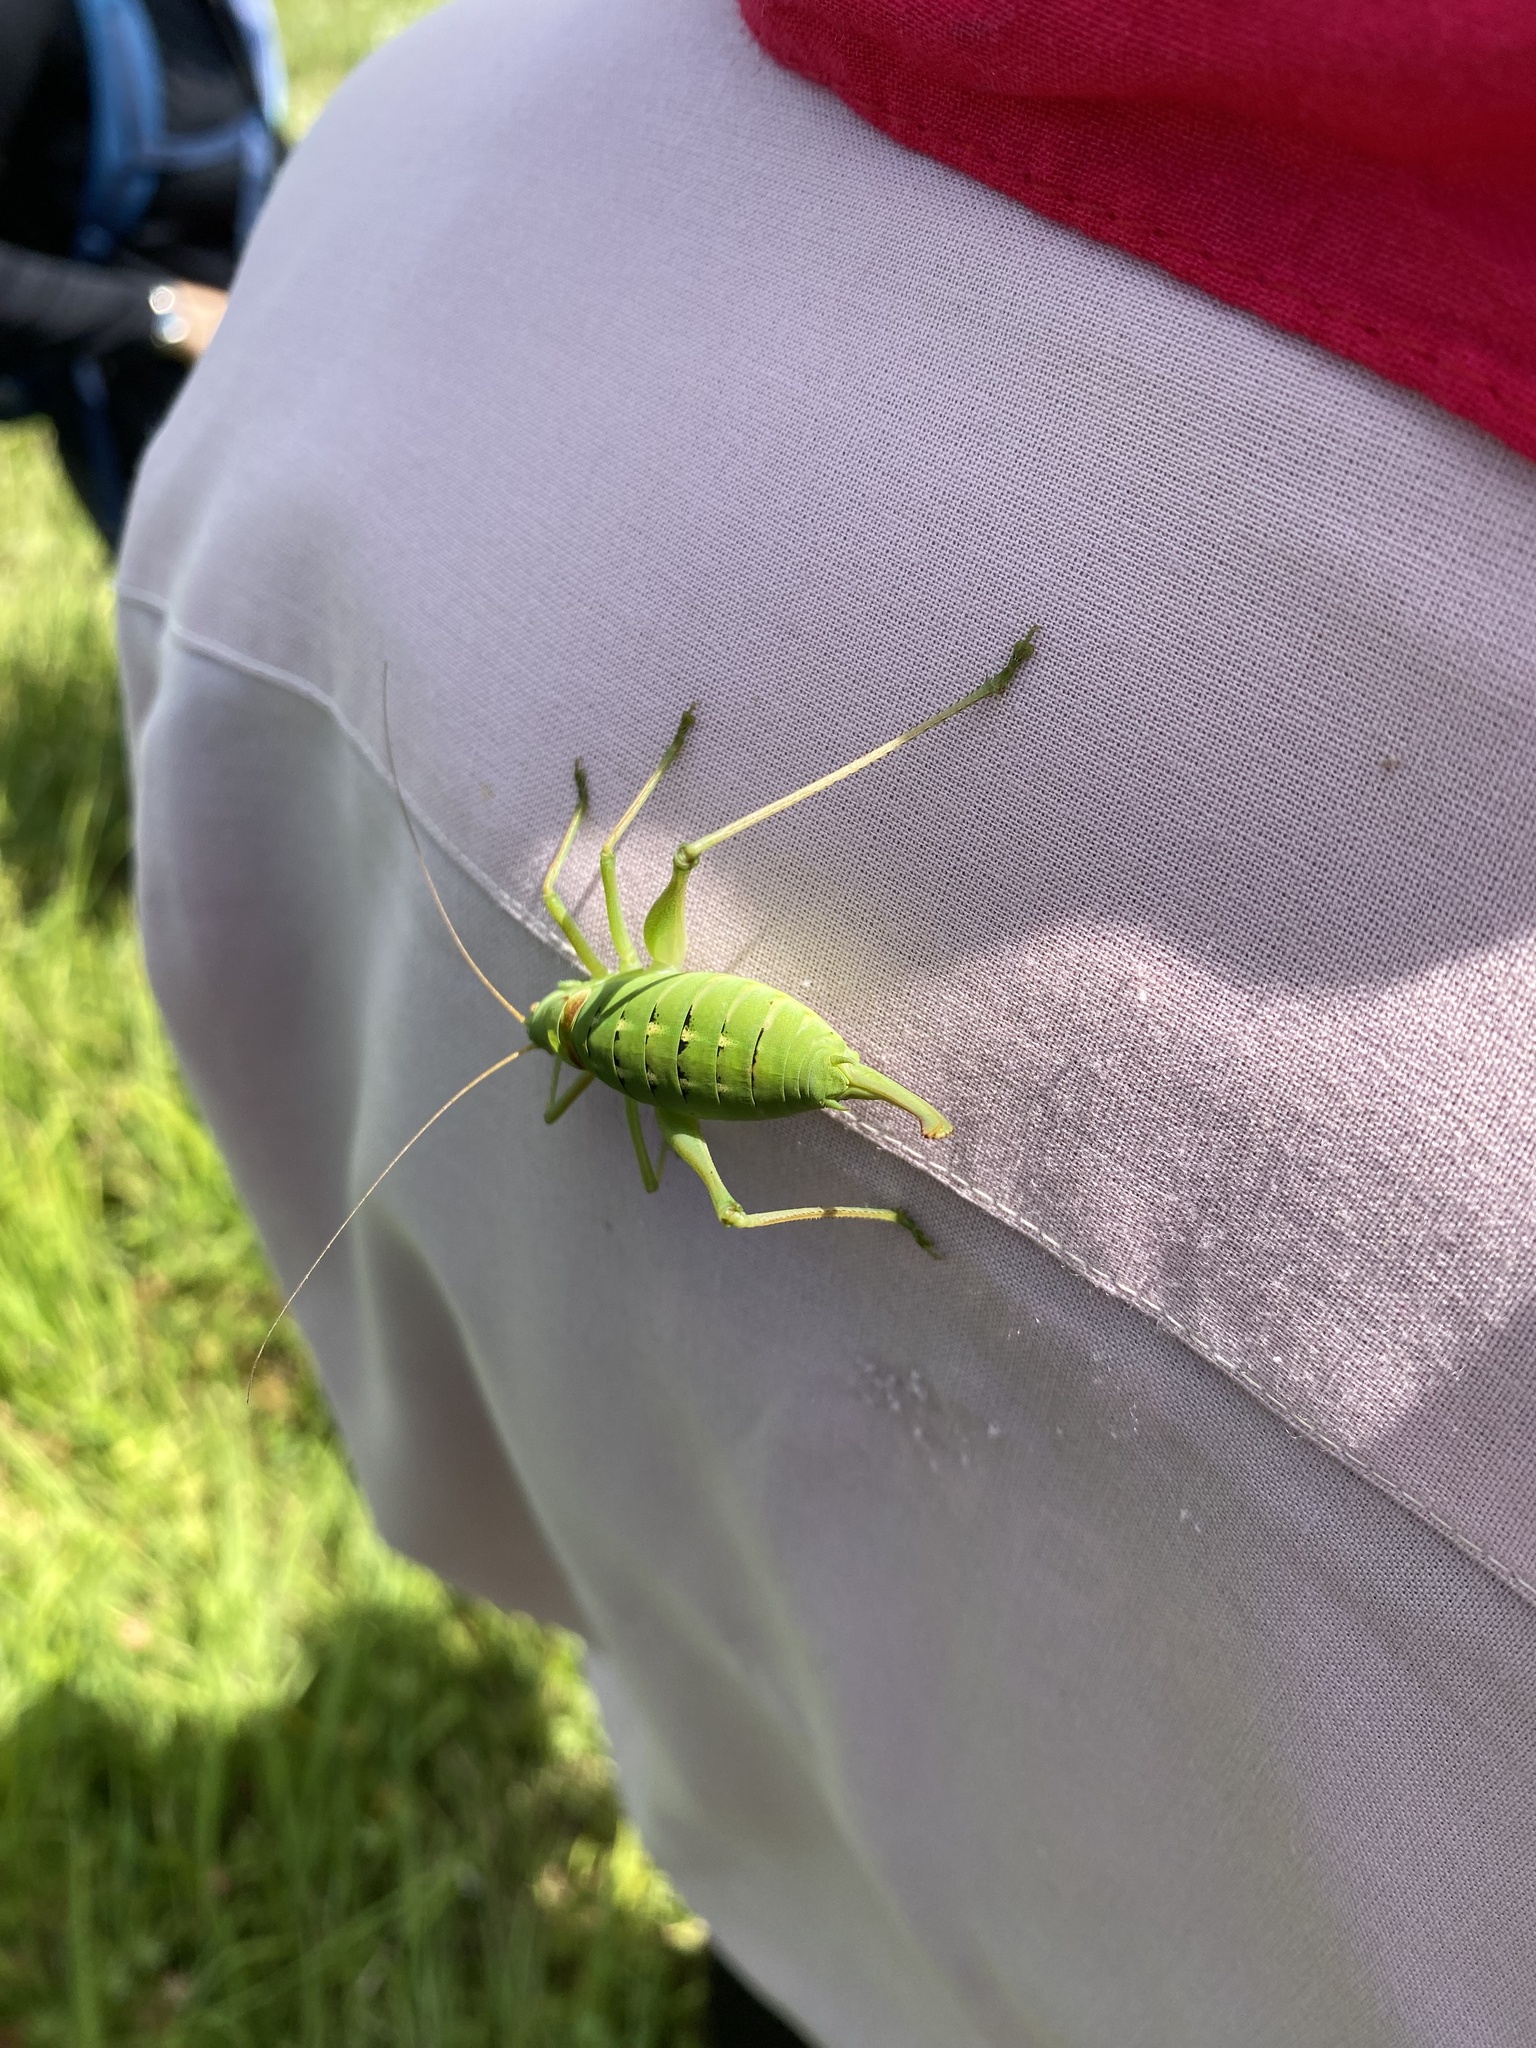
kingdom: Animalia
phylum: Arthropoda
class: Insecta
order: Orthoptera
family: Tettigoniidae
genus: Poecilimon
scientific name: Poecilimon schmidtii
